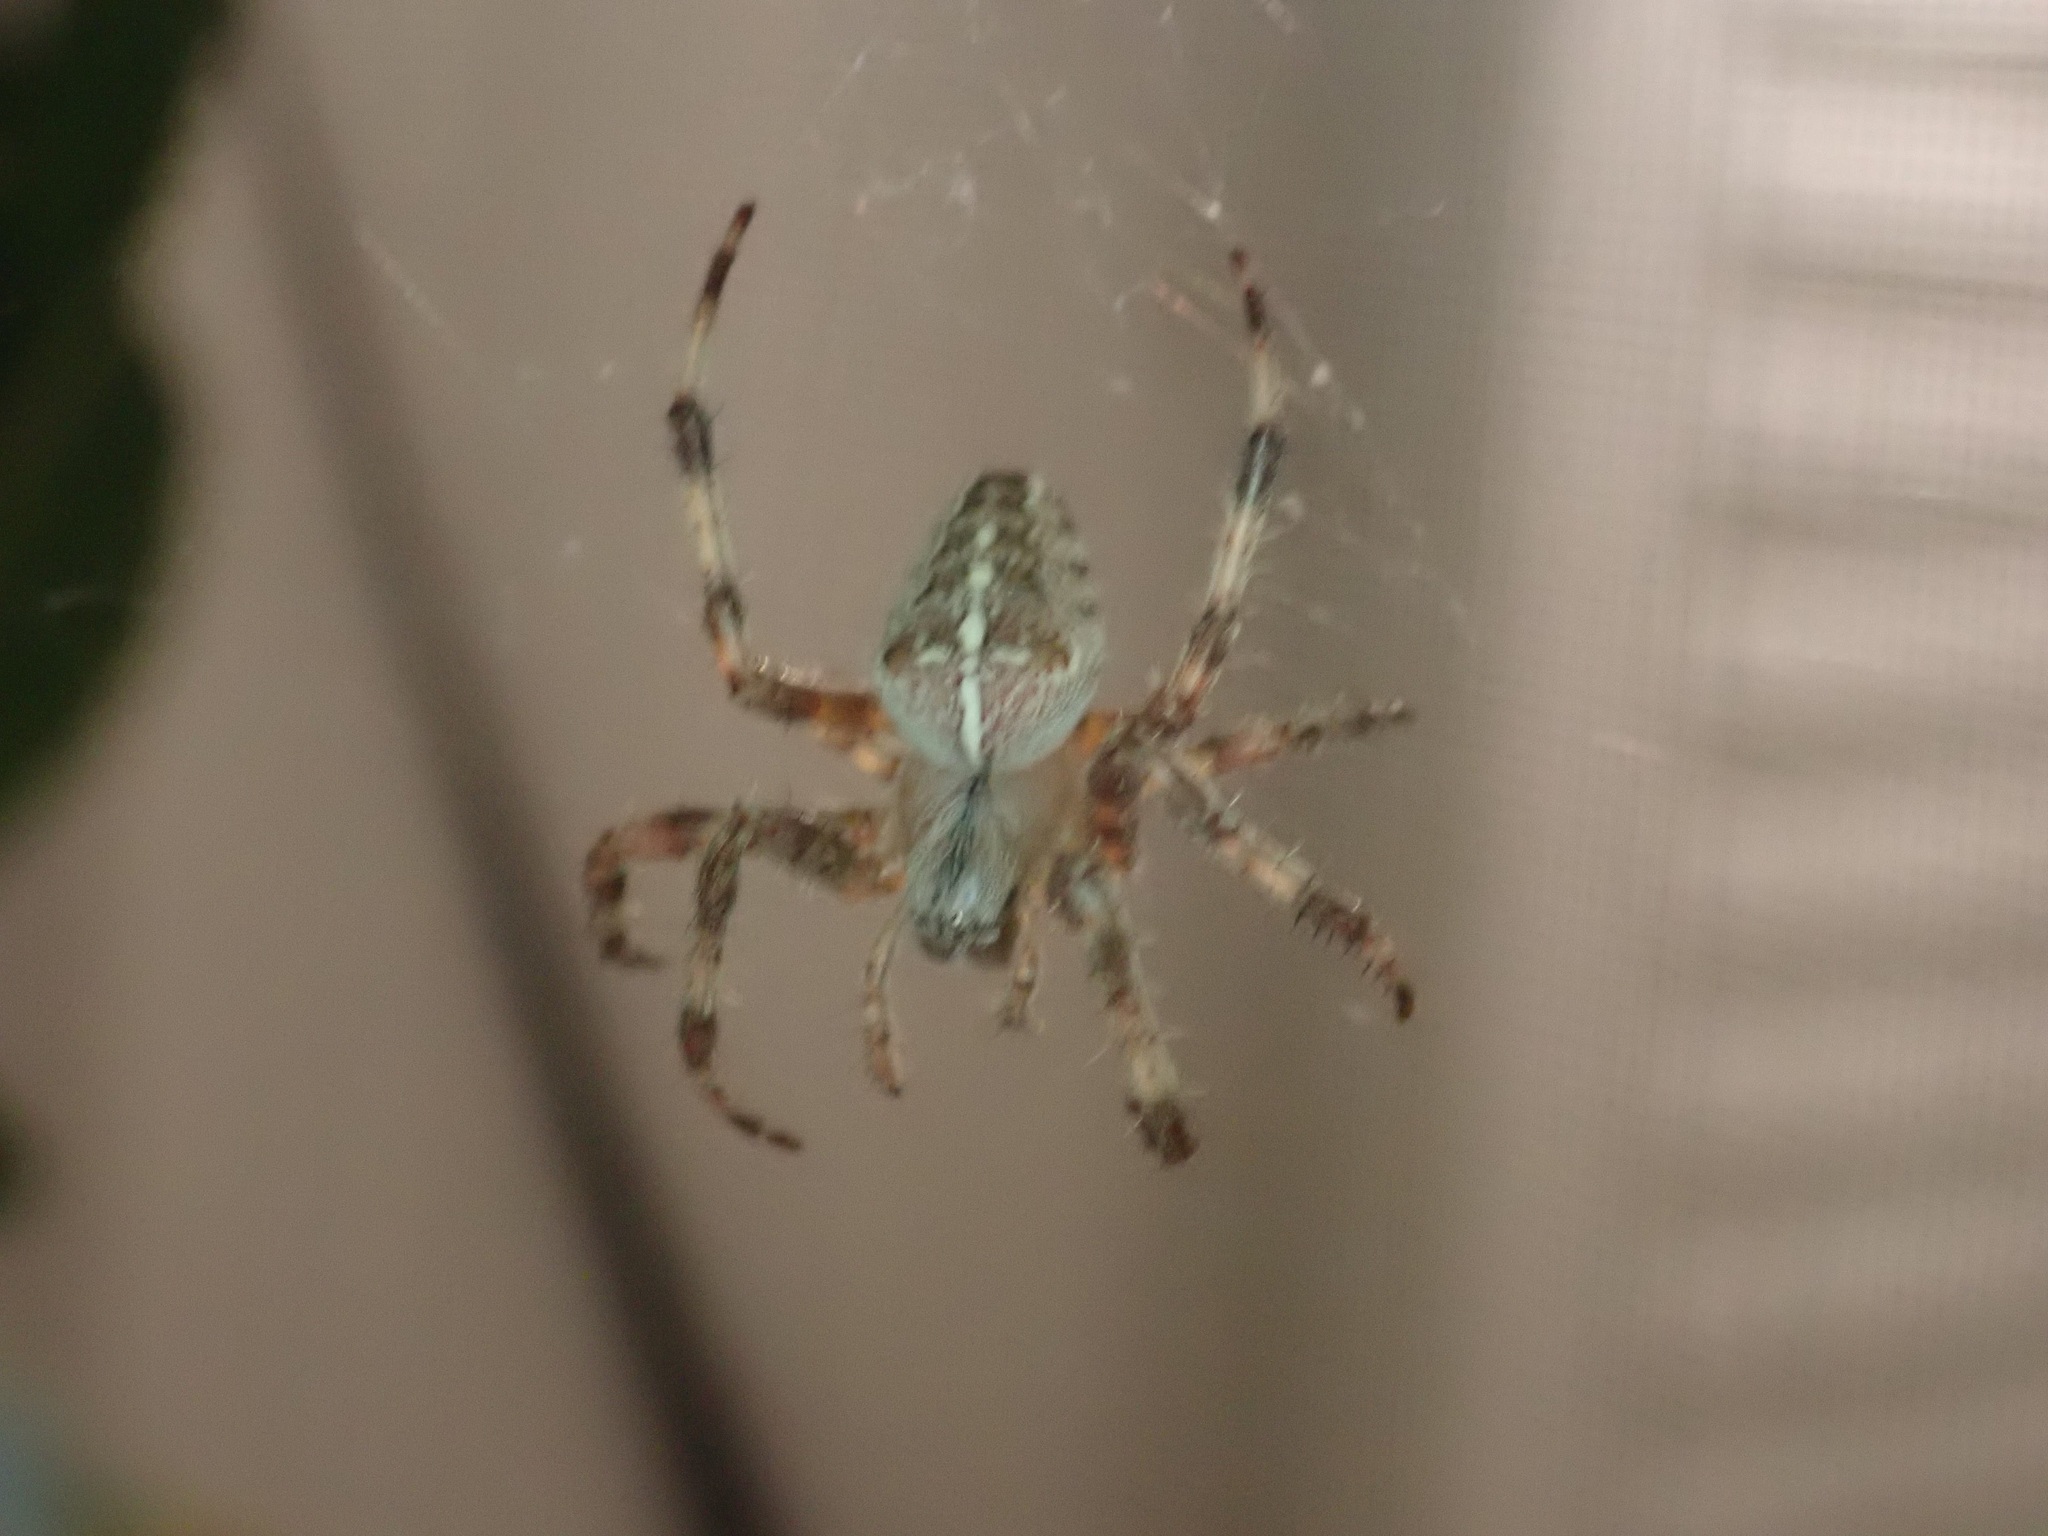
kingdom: Animalia
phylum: Arthropoda
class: Arachnida
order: Araneae
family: Araneidae
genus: Araneus
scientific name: Araneus diadematus
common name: Cross orbweaver
